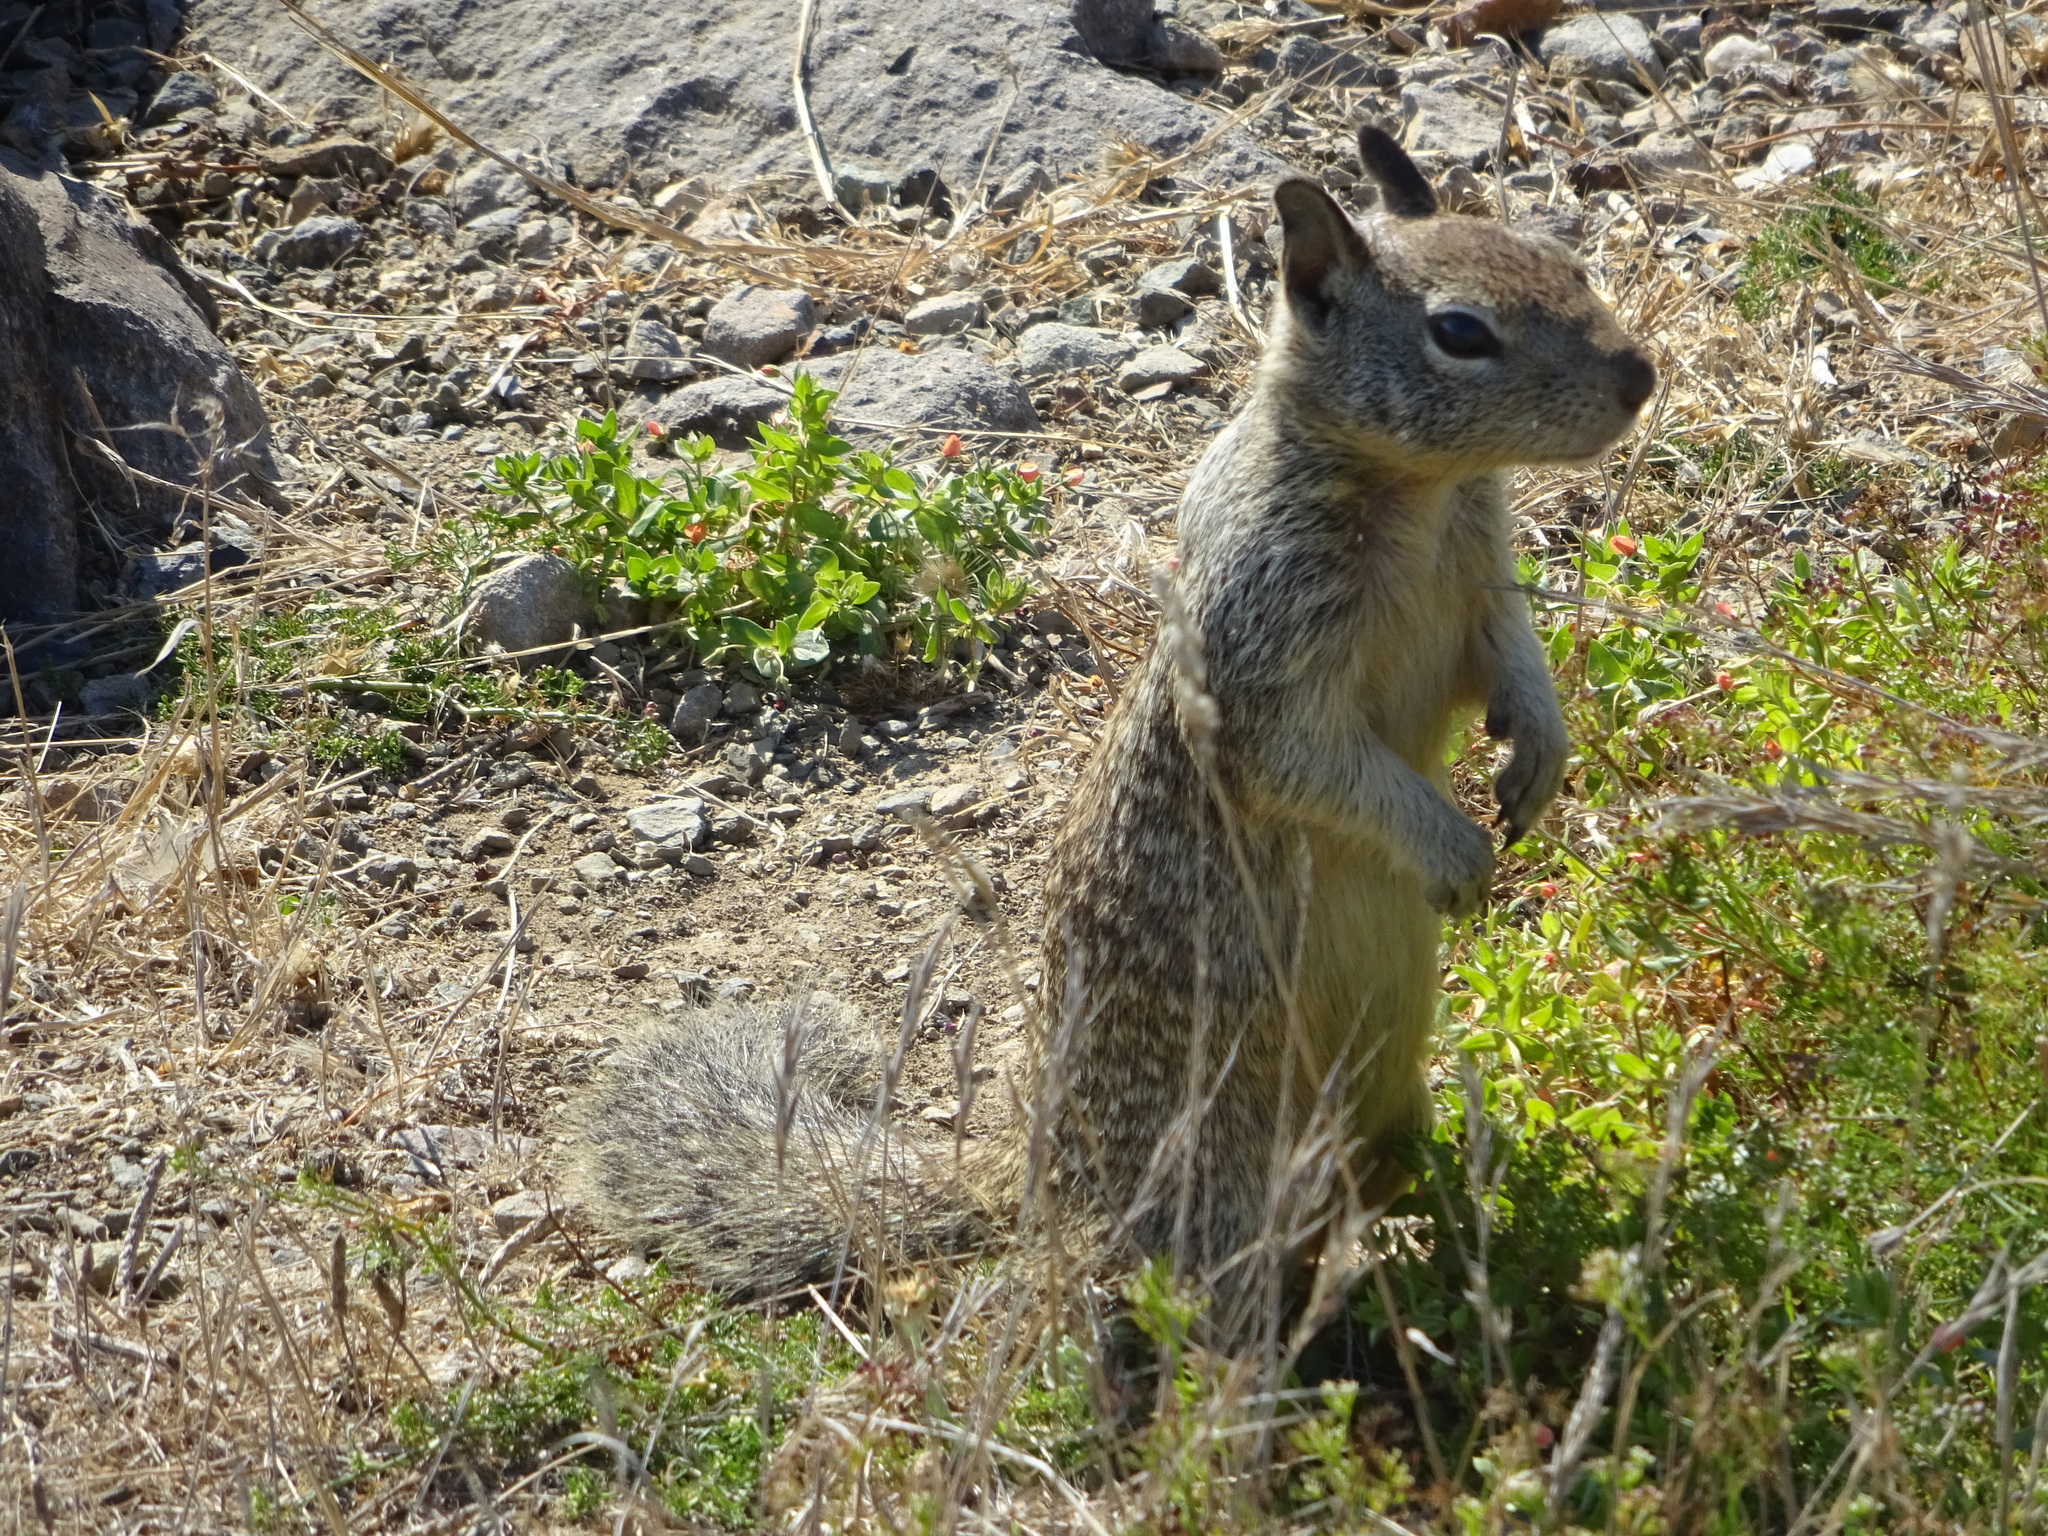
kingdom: Animalia
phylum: Chordata
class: Mammalia
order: Rodentia
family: Sciuridae
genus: Otospermophilus
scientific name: Otospermophilus beecheyi
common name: California ground squirrel
